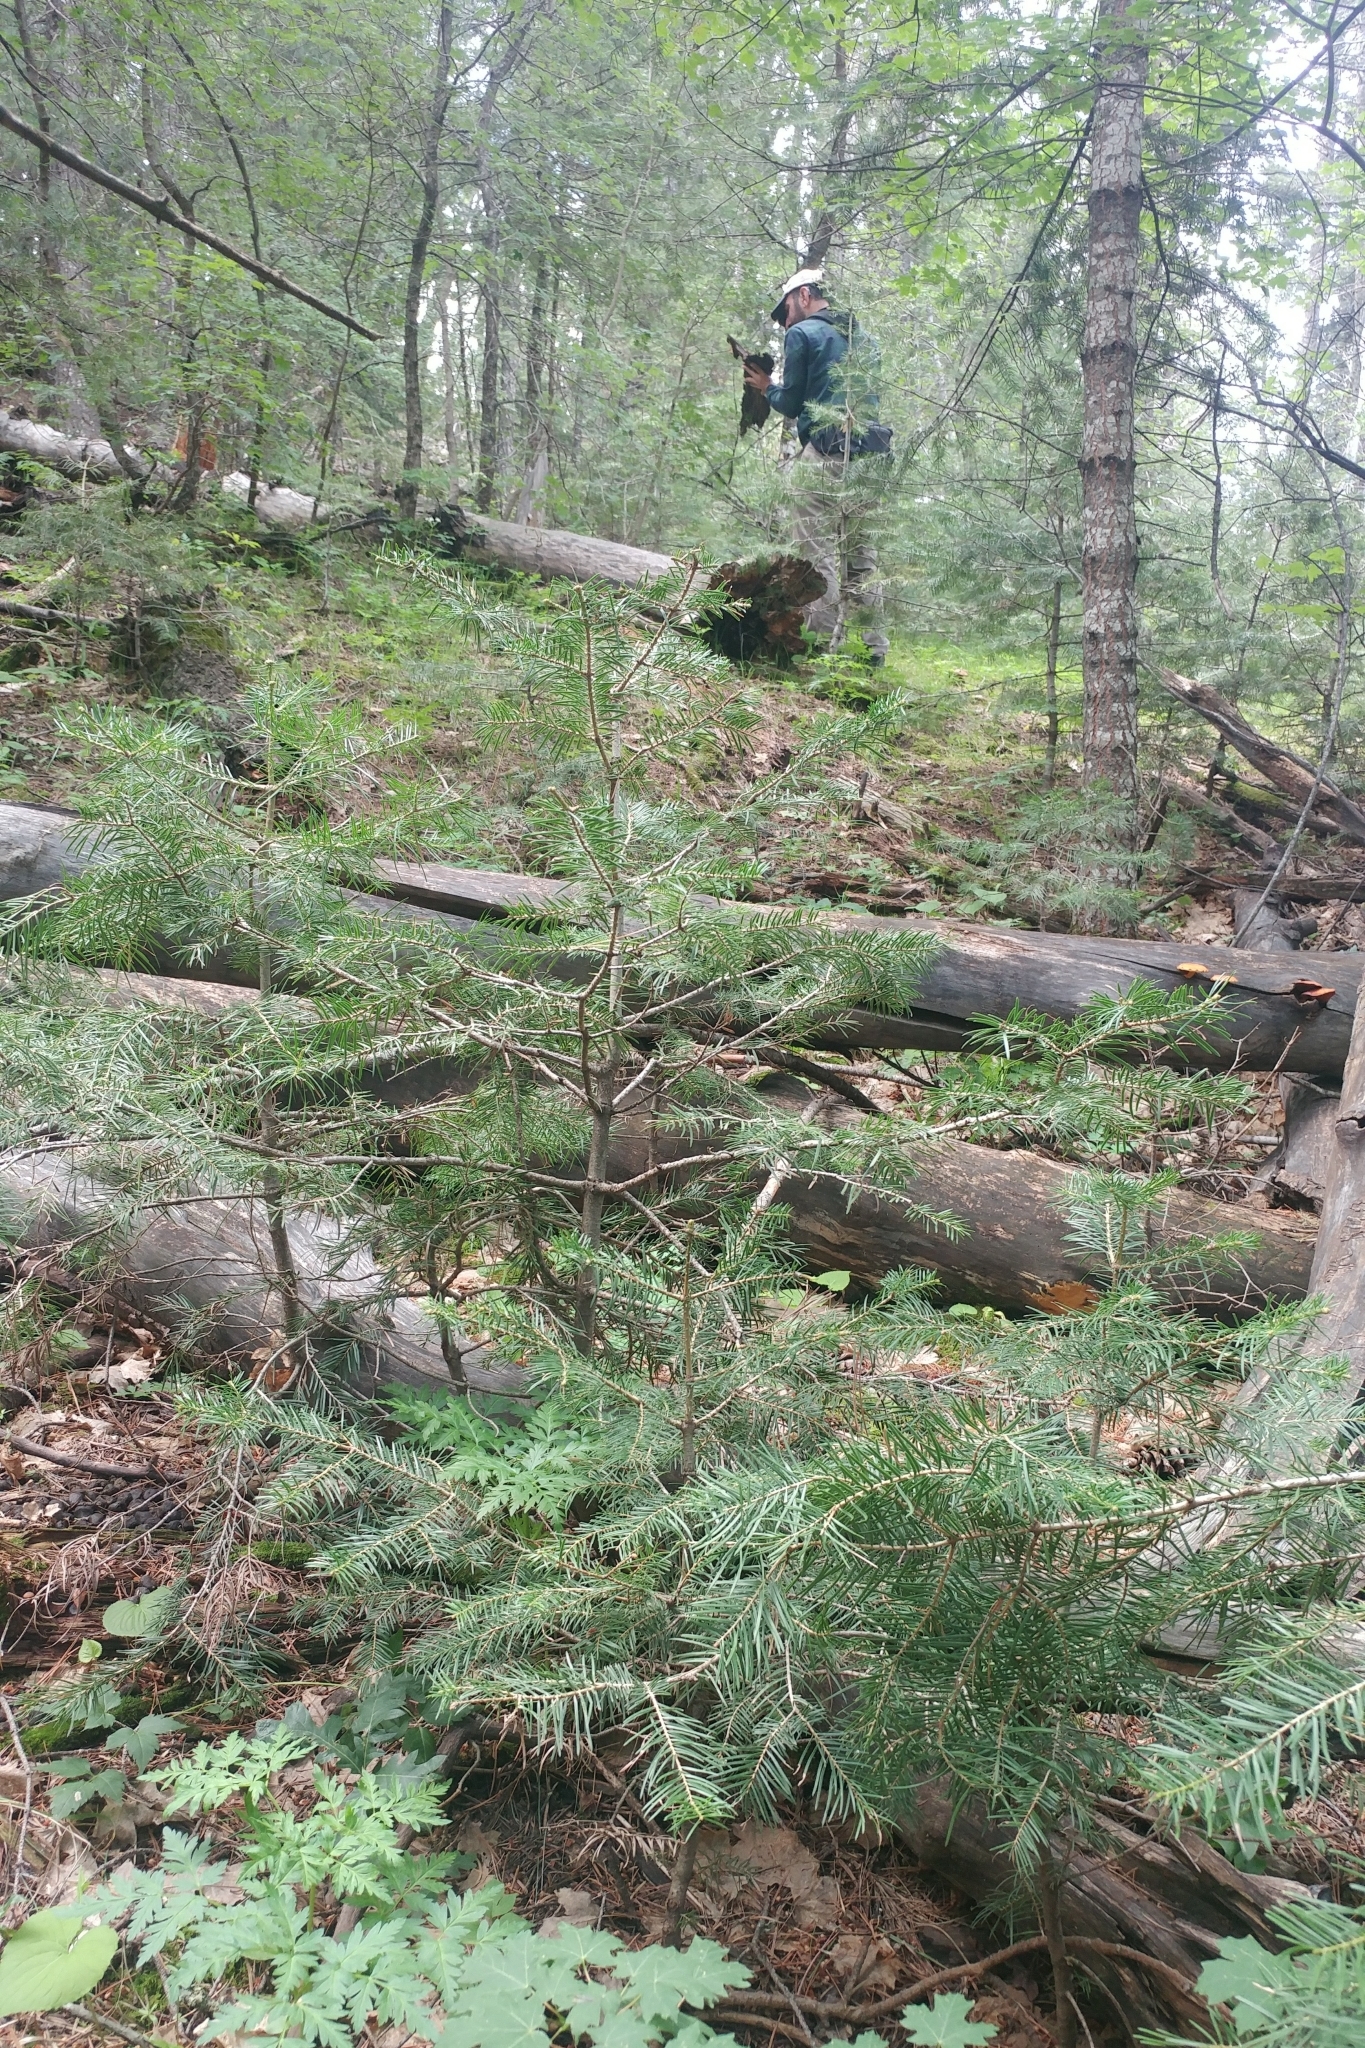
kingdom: Plantae
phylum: Tracheophyta
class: Pinopsida
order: Pinales
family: Pinaceae
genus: Abies
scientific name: Abies concolor
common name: Colorado fir
